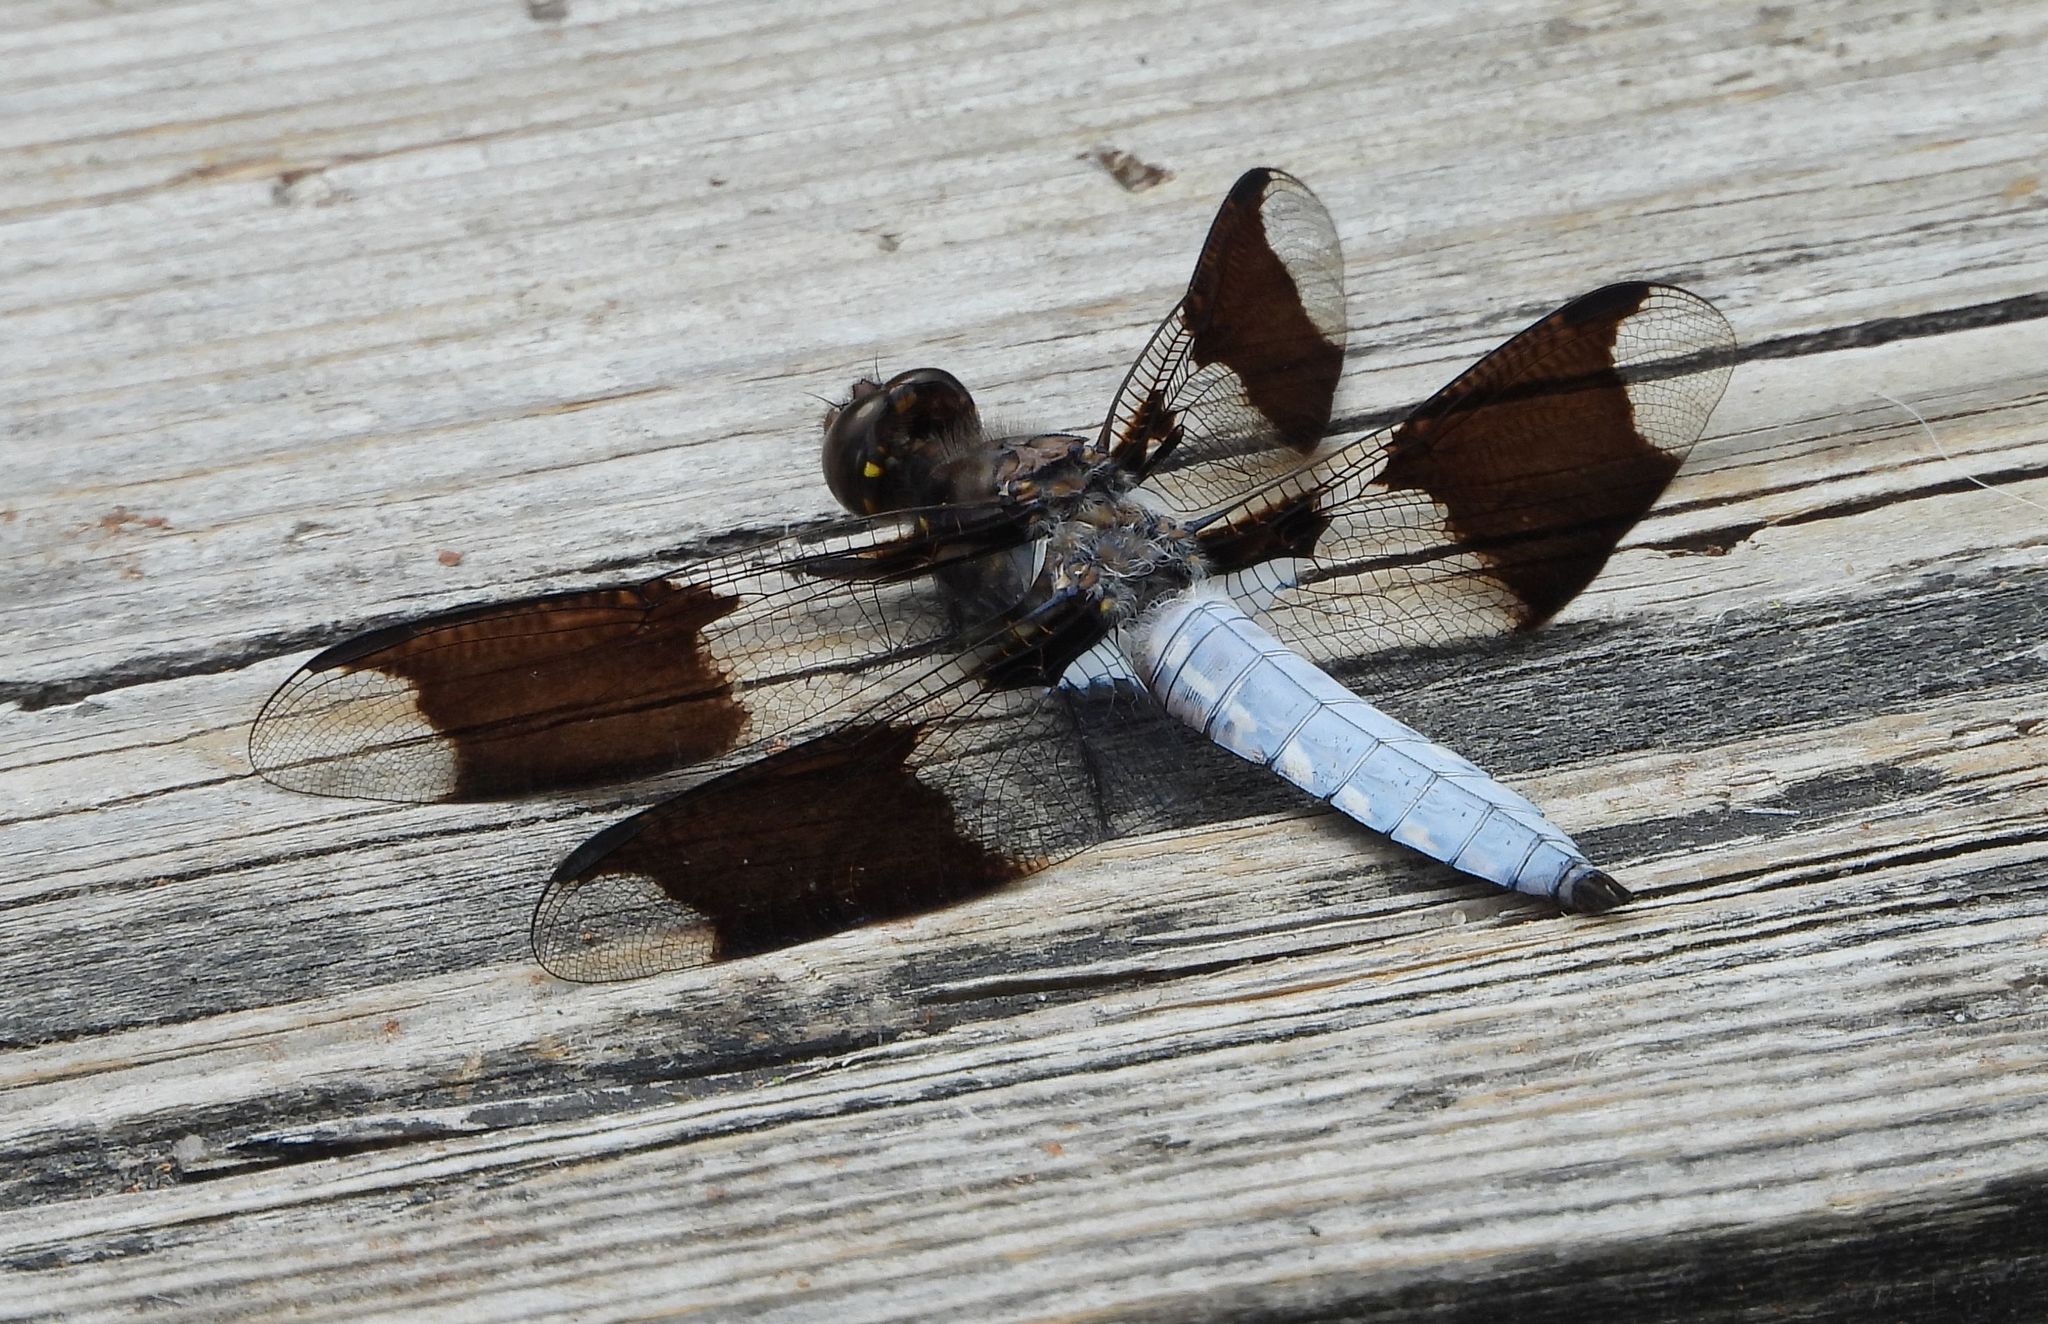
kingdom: Animalia
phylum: Arthropoda
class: Insecta
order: Odonata
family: Libellulidae
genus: Plathemis
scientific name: Plathemis lydia
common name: Common whitetail
